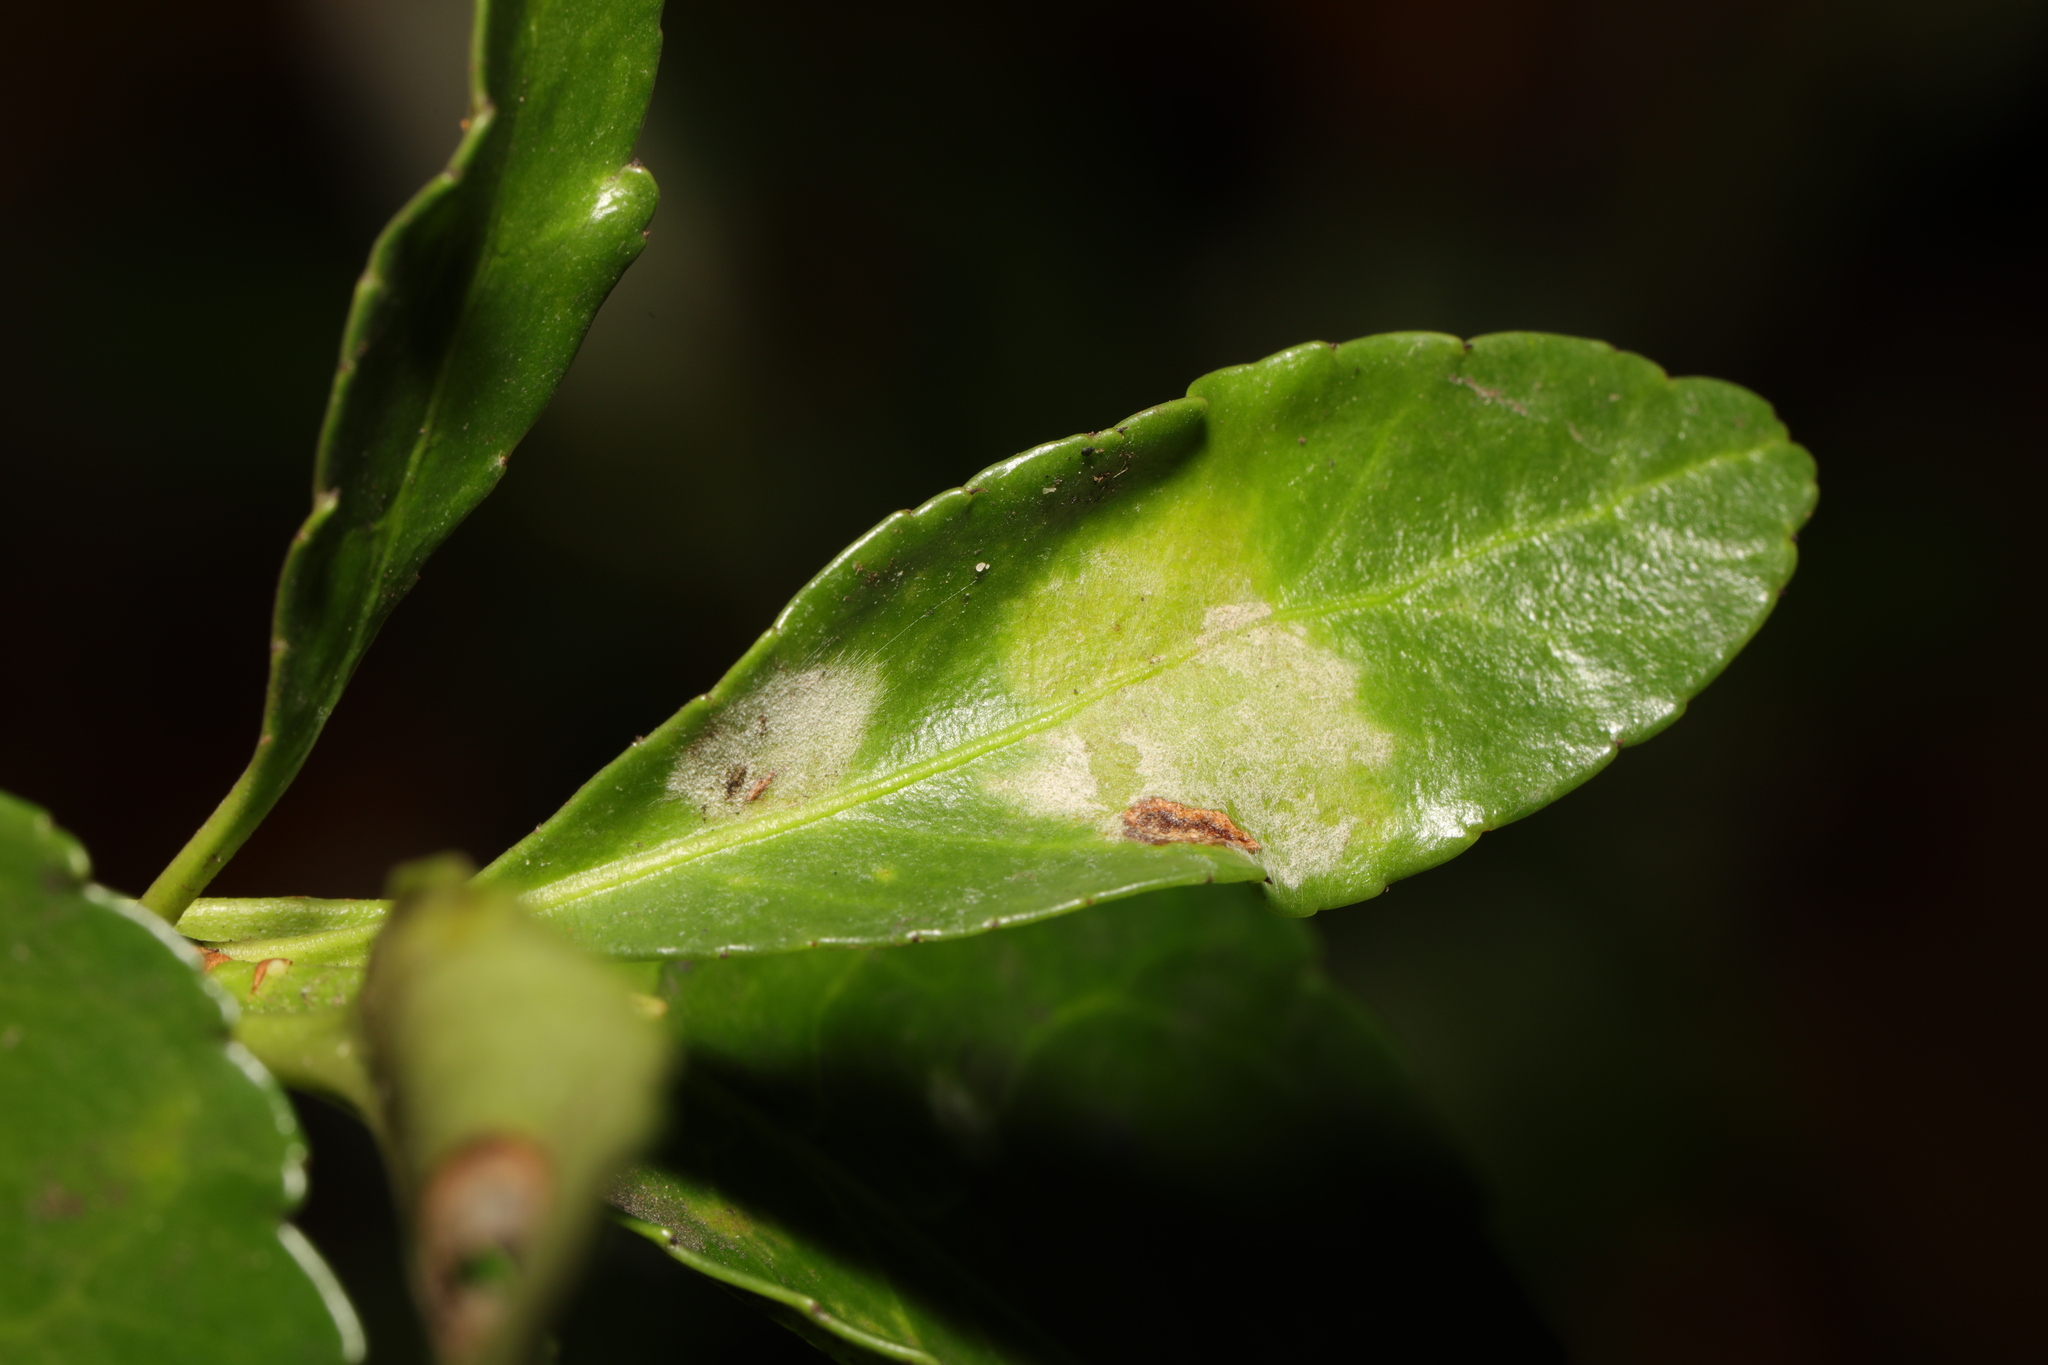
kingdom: Fungi
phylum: Ascomycota
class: Leotiomycetes
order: Helotiales
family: Erysiphaceae
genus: Erysiphe
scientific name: Erysiphe euonymicola
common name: Spindletree mildew
